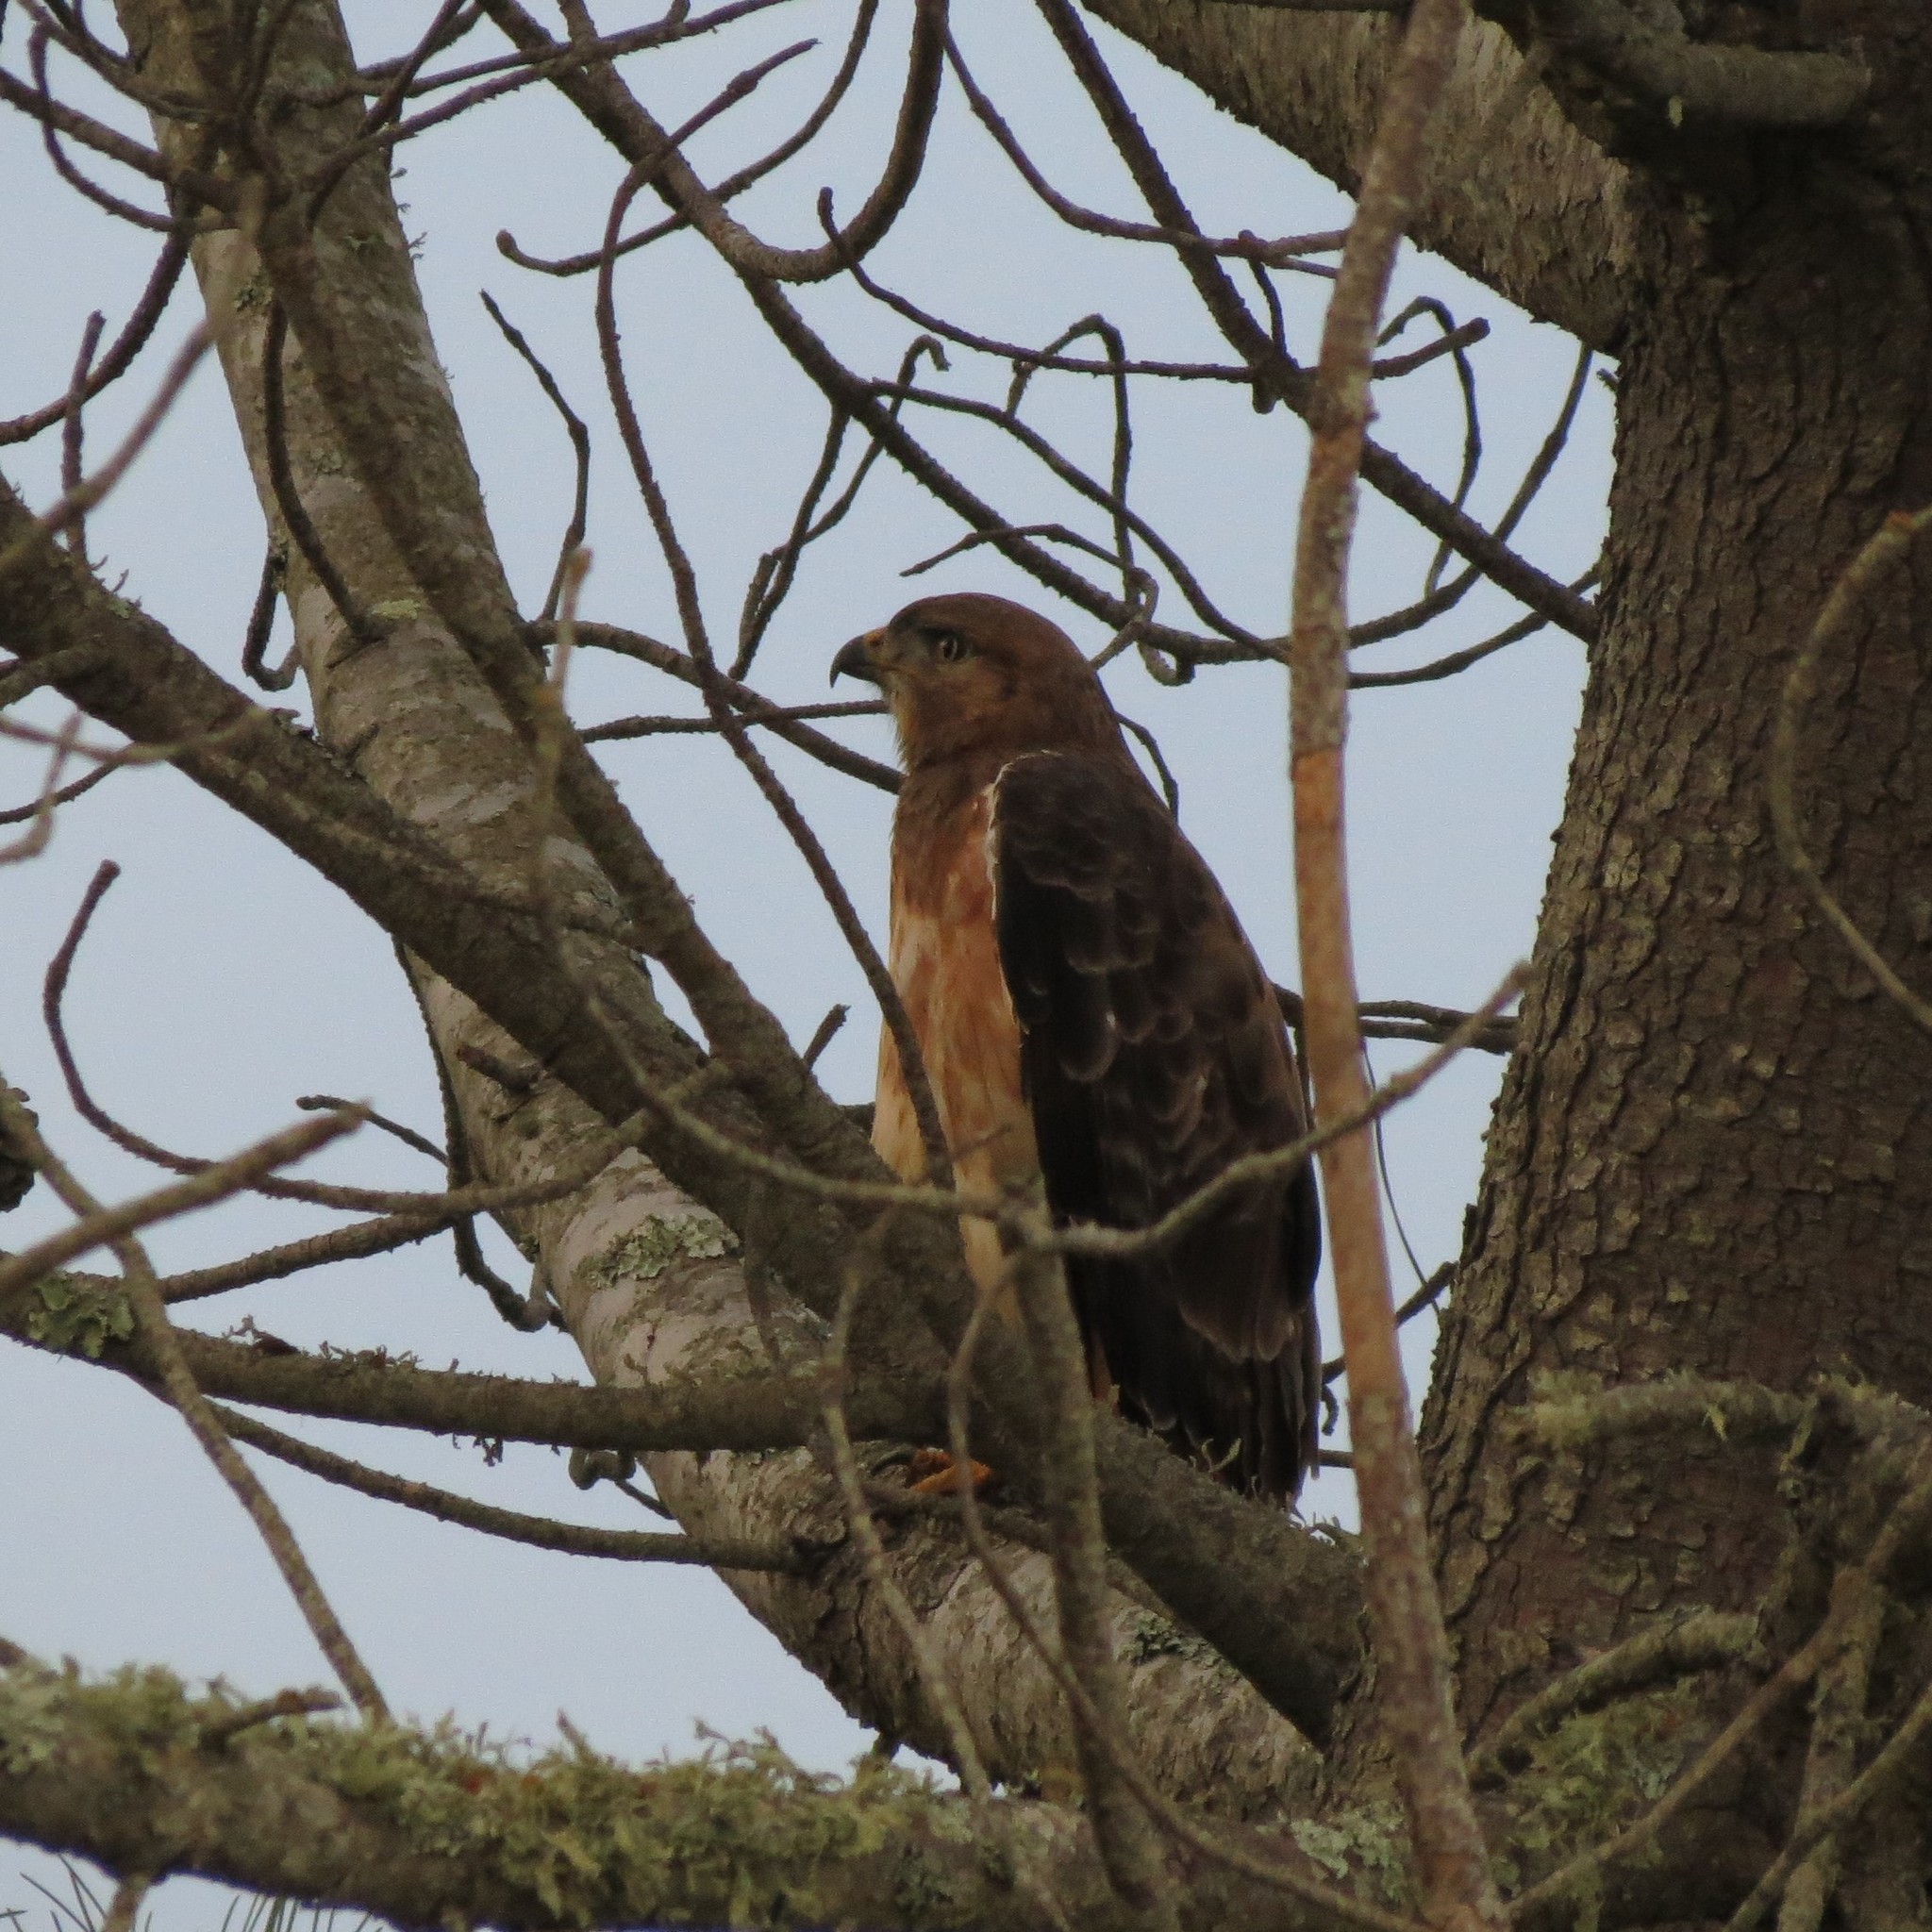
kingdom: Animalia
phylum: Chordata
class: Aves
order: Accipitriformes
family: Accipitridae
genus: Buteo
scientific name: Buteo rufofuscus
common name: Jackal buzzard
